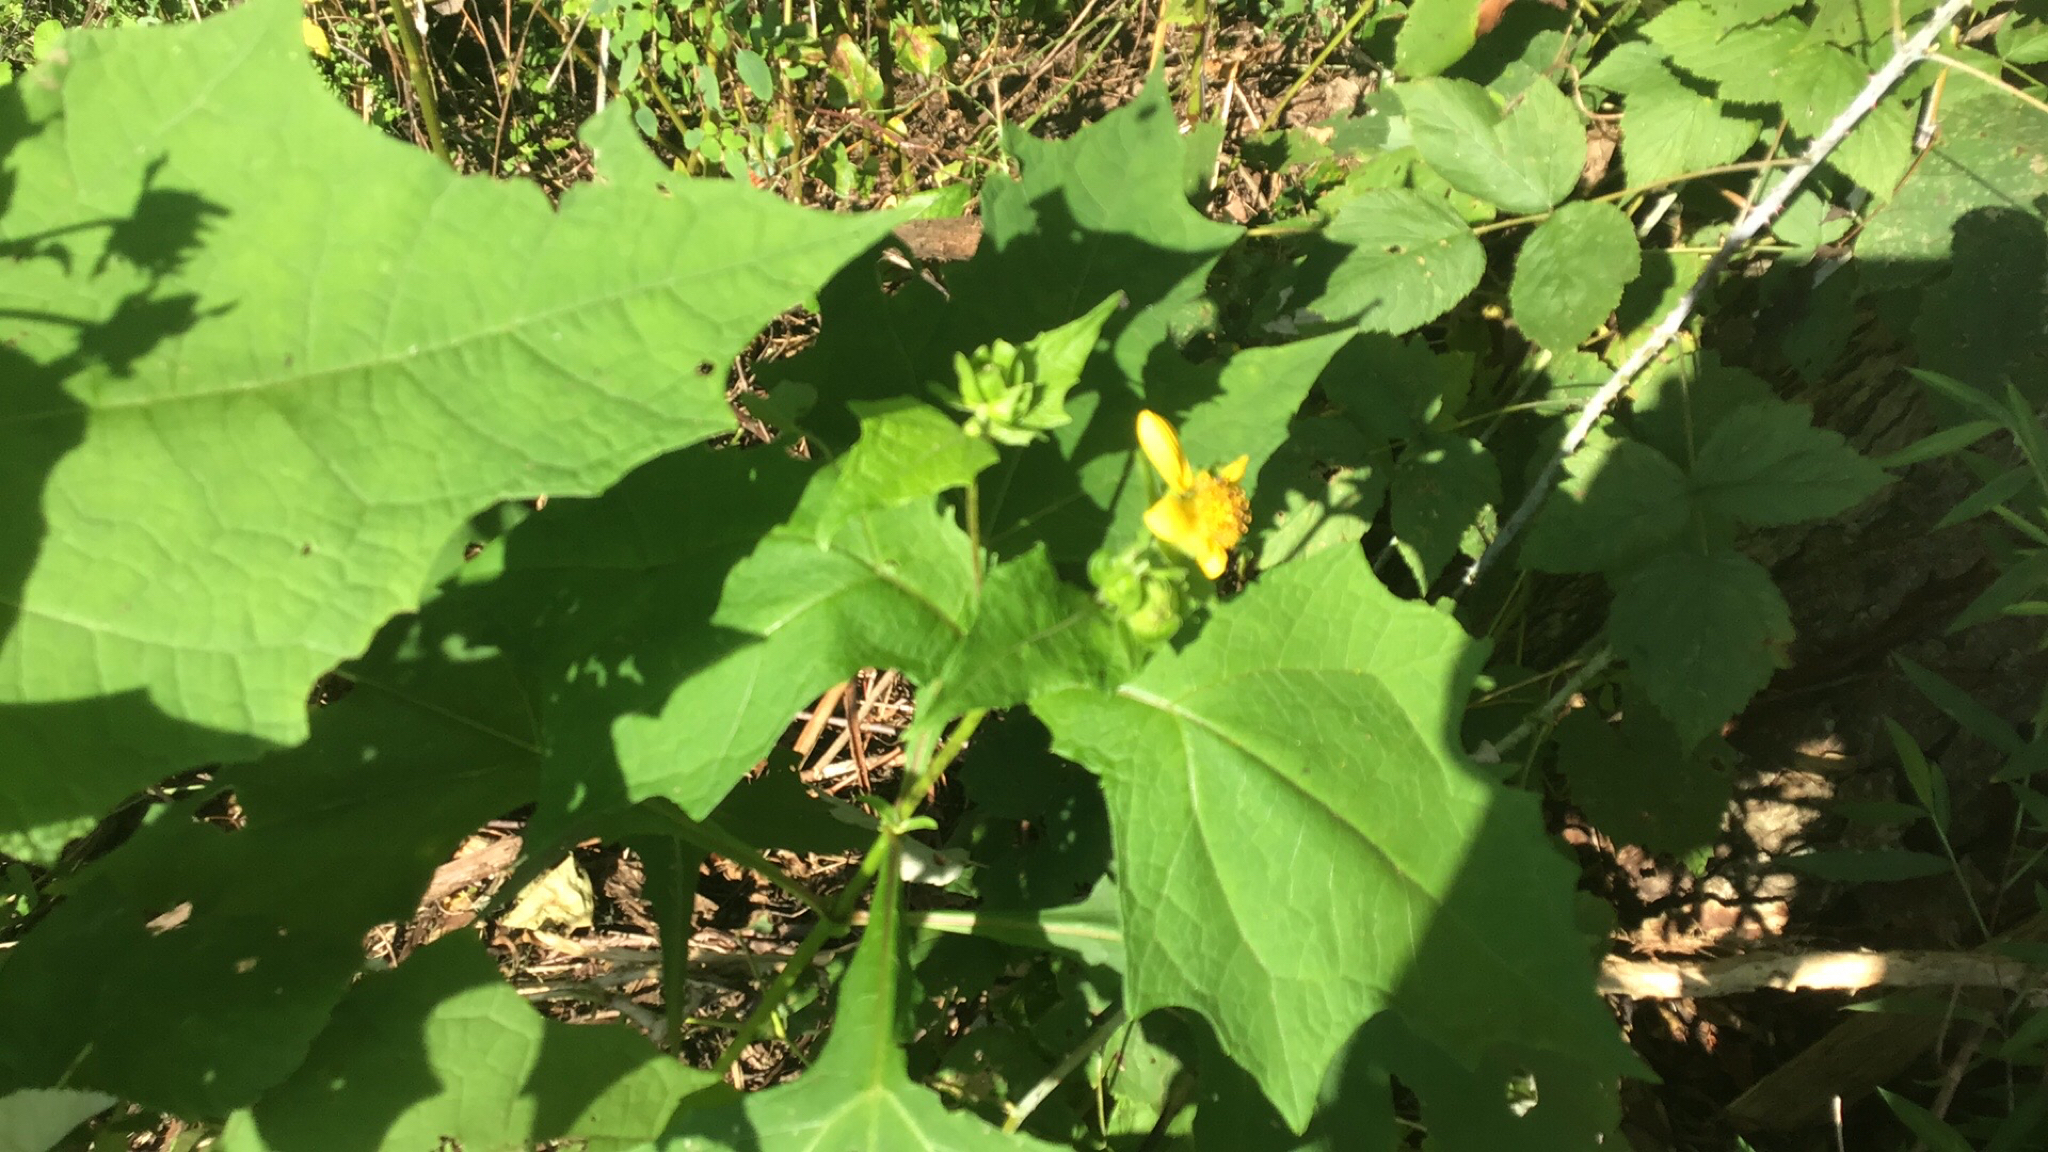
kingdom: Plantae
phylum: Tracheophyta
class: Magnoliopsida
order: Asterales
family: Asteraceae
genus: Smallanthus
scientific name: Smallanthus uvedalia
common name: Bear's-foot
